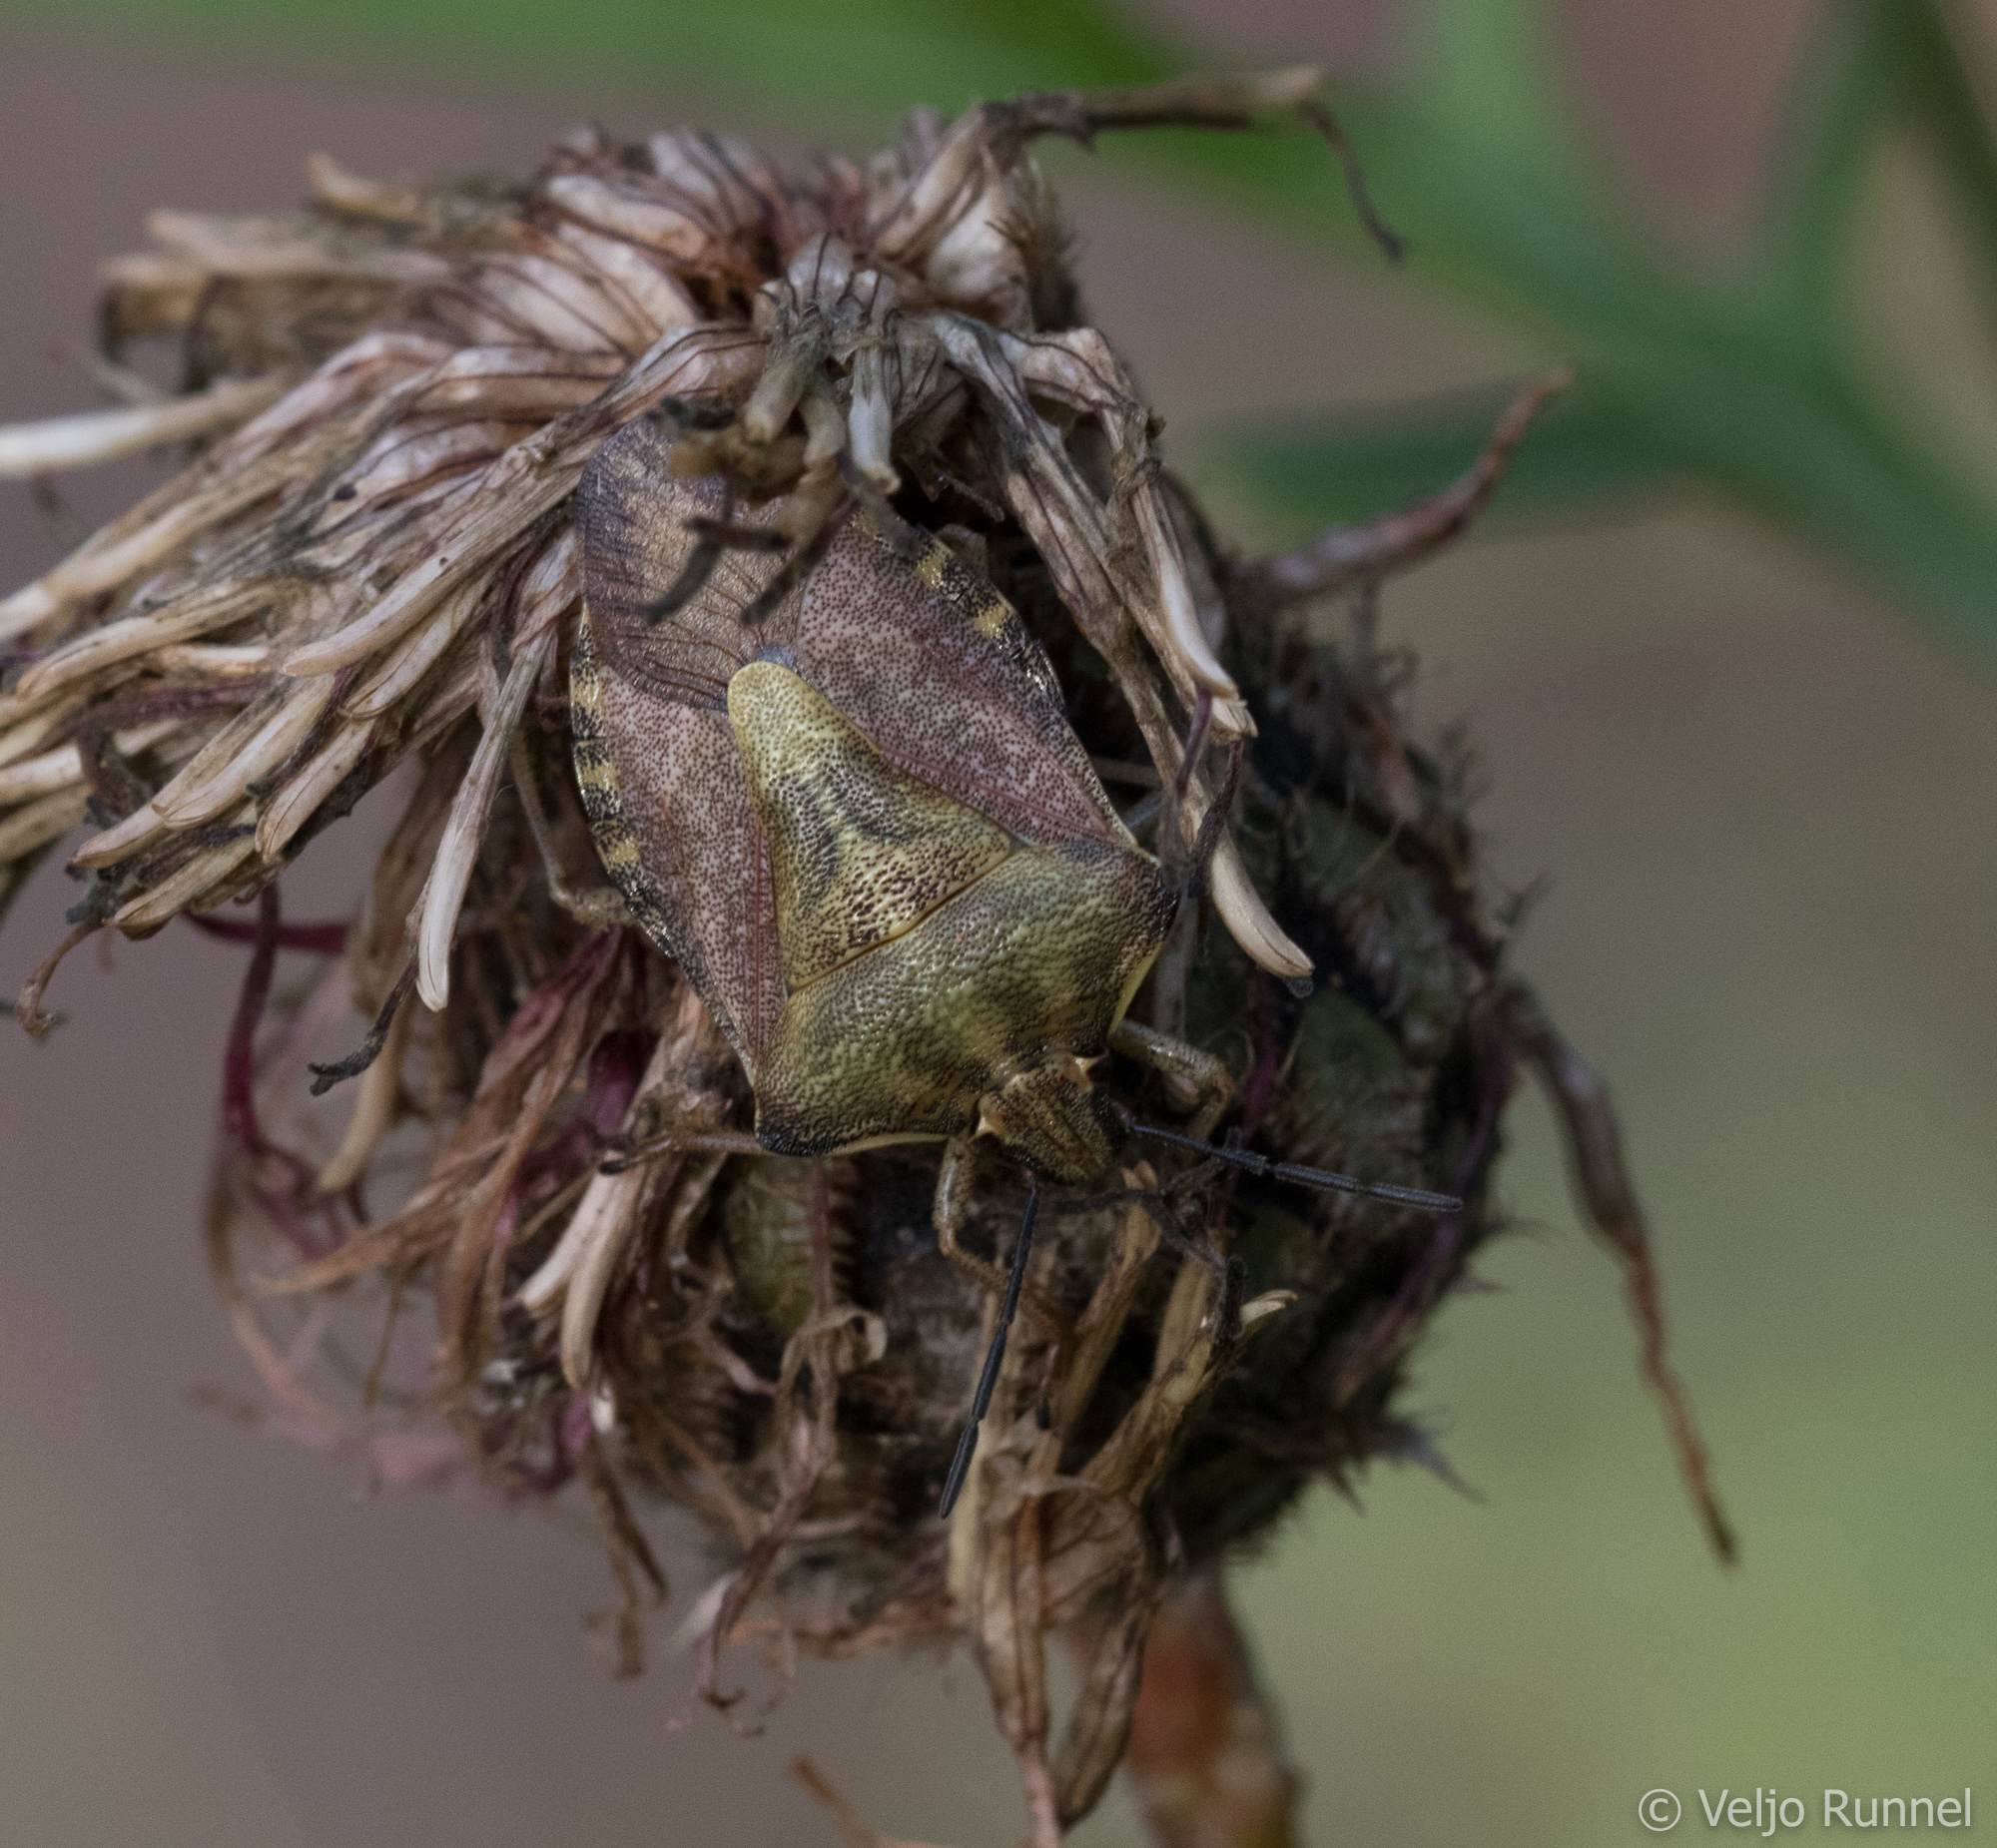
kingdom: Animalia
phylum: Arthropoda
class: Insecta
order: Hemiptera
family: Pentatomidae
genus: Carpocoris
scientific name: Carpocoris purpureipennis
